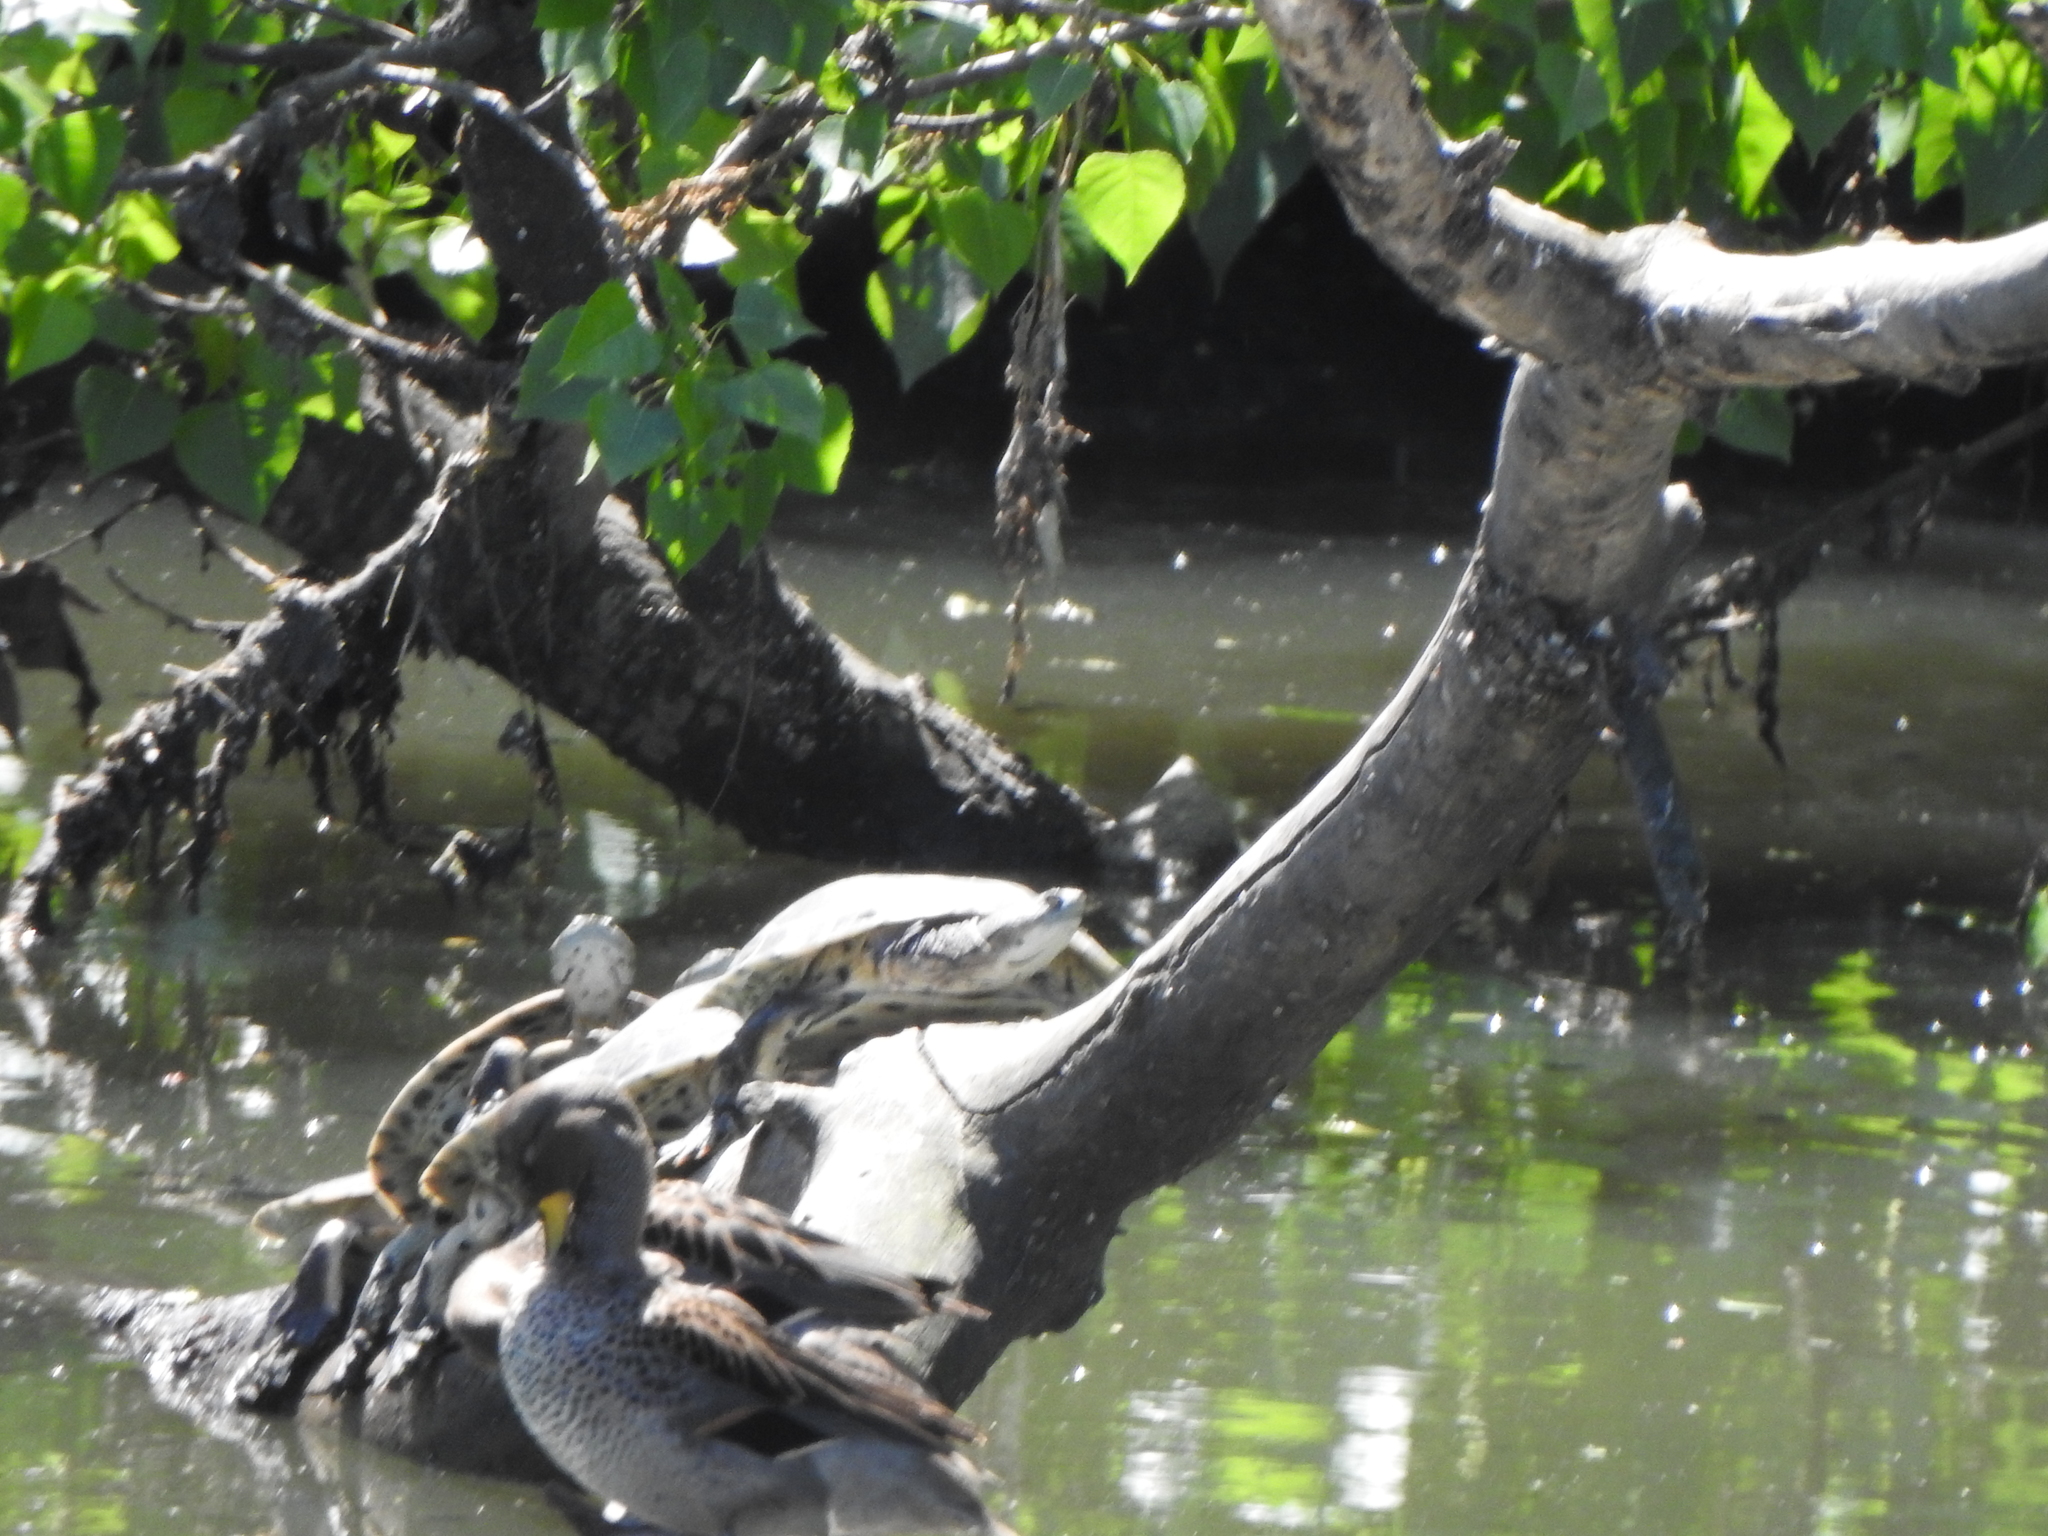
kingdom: Animalia
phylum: Chordata
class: Aves
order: Anseriformes
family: Anatidae
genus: Anas
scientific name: Anas flavirostris
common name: Yellow-billed teal
